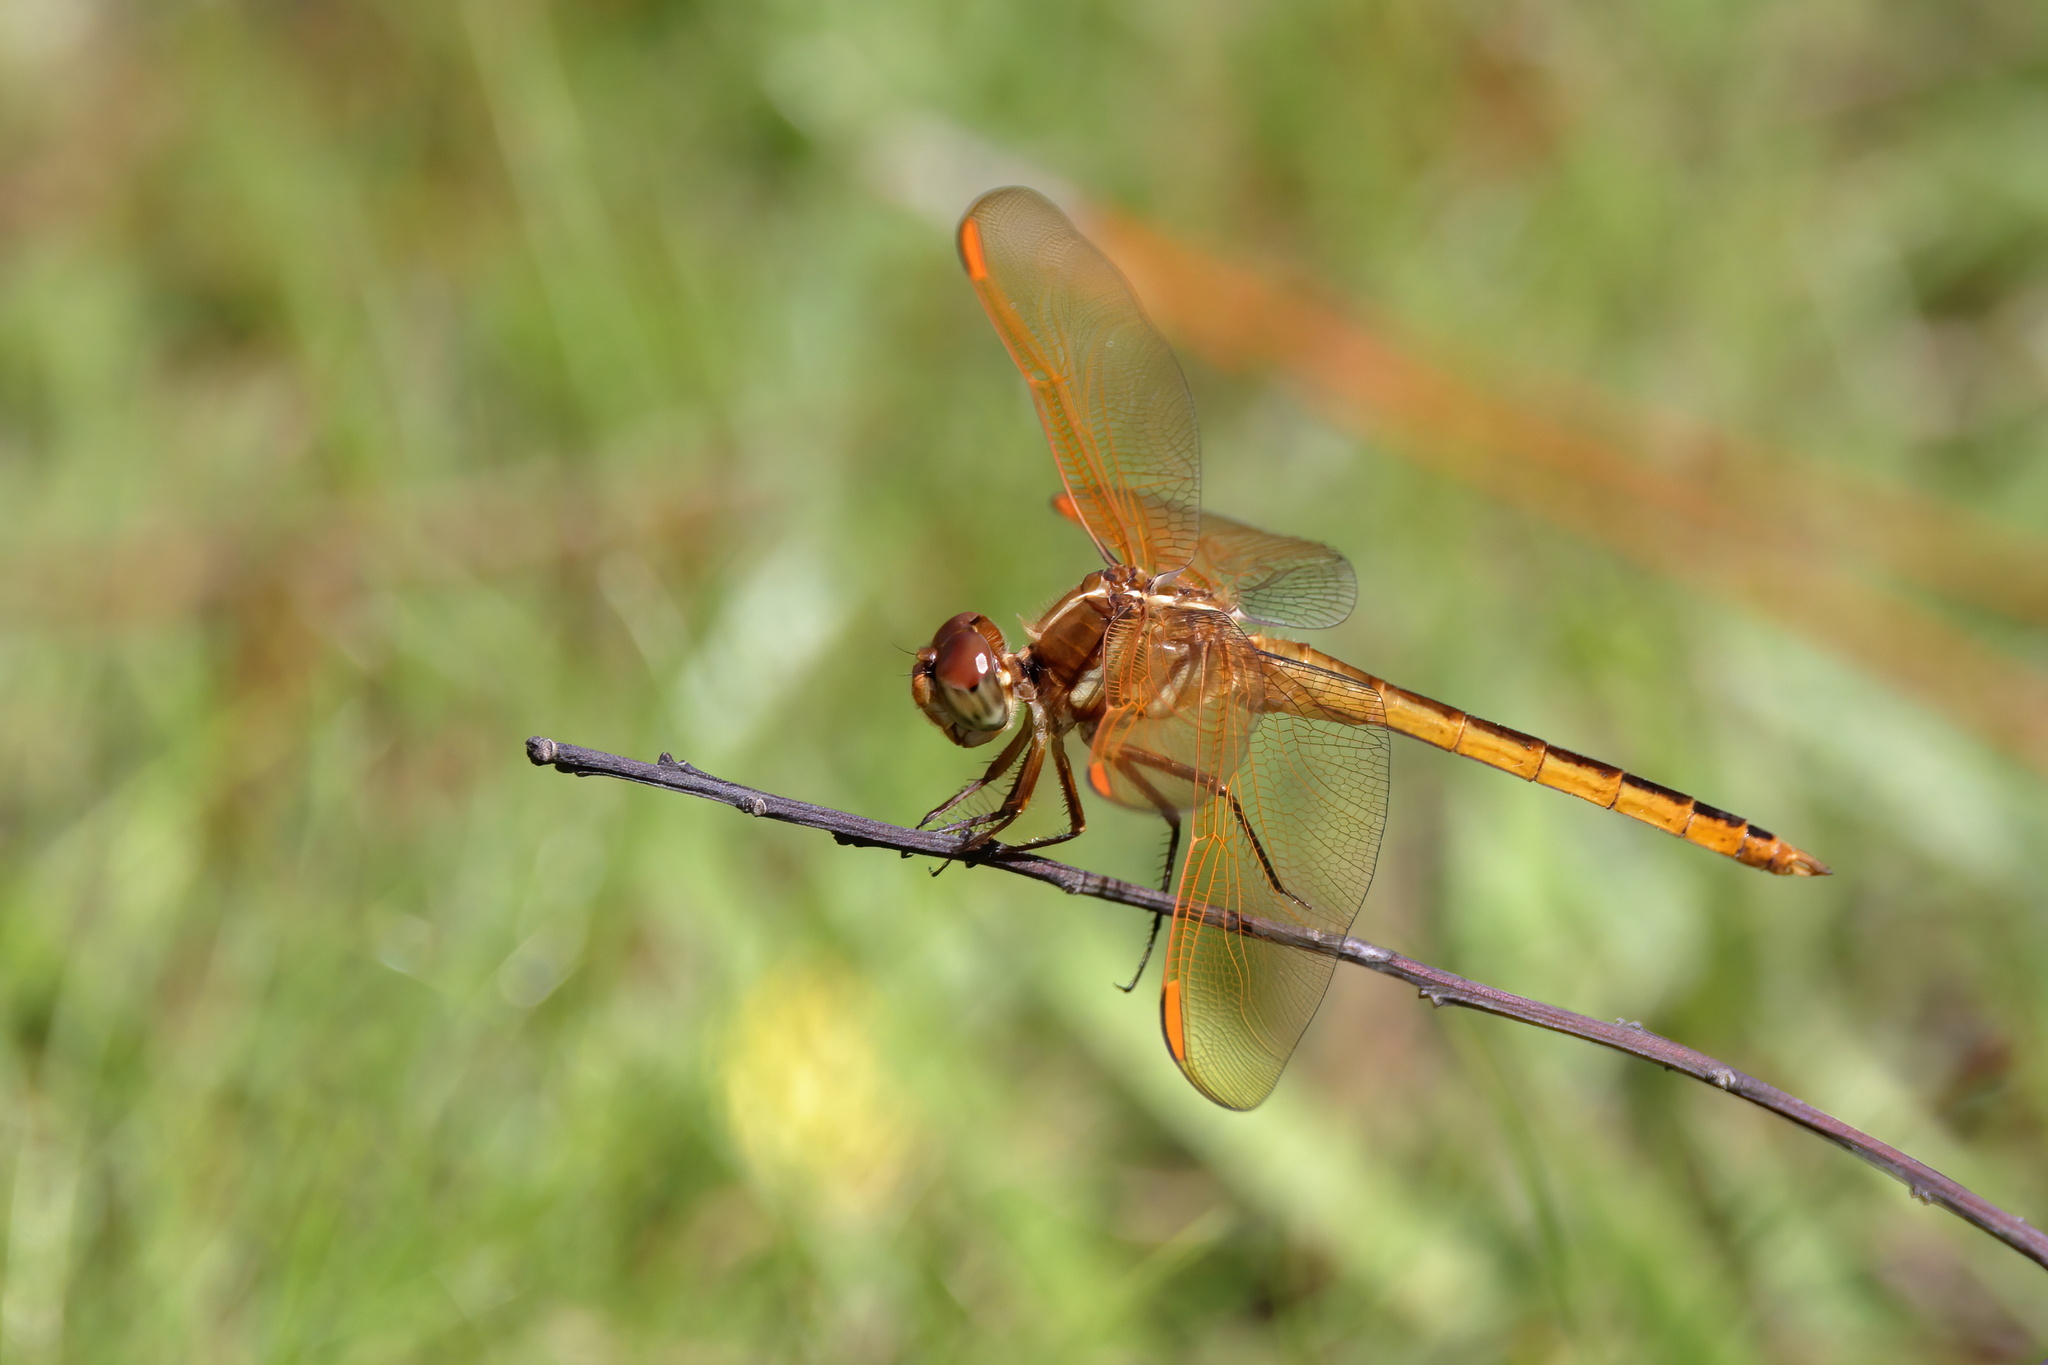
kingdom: Animalia
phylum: Arthropoda
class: Insecta
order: Odonata
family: Libellulidae
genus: Libellula
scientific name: Libellula auripennis
